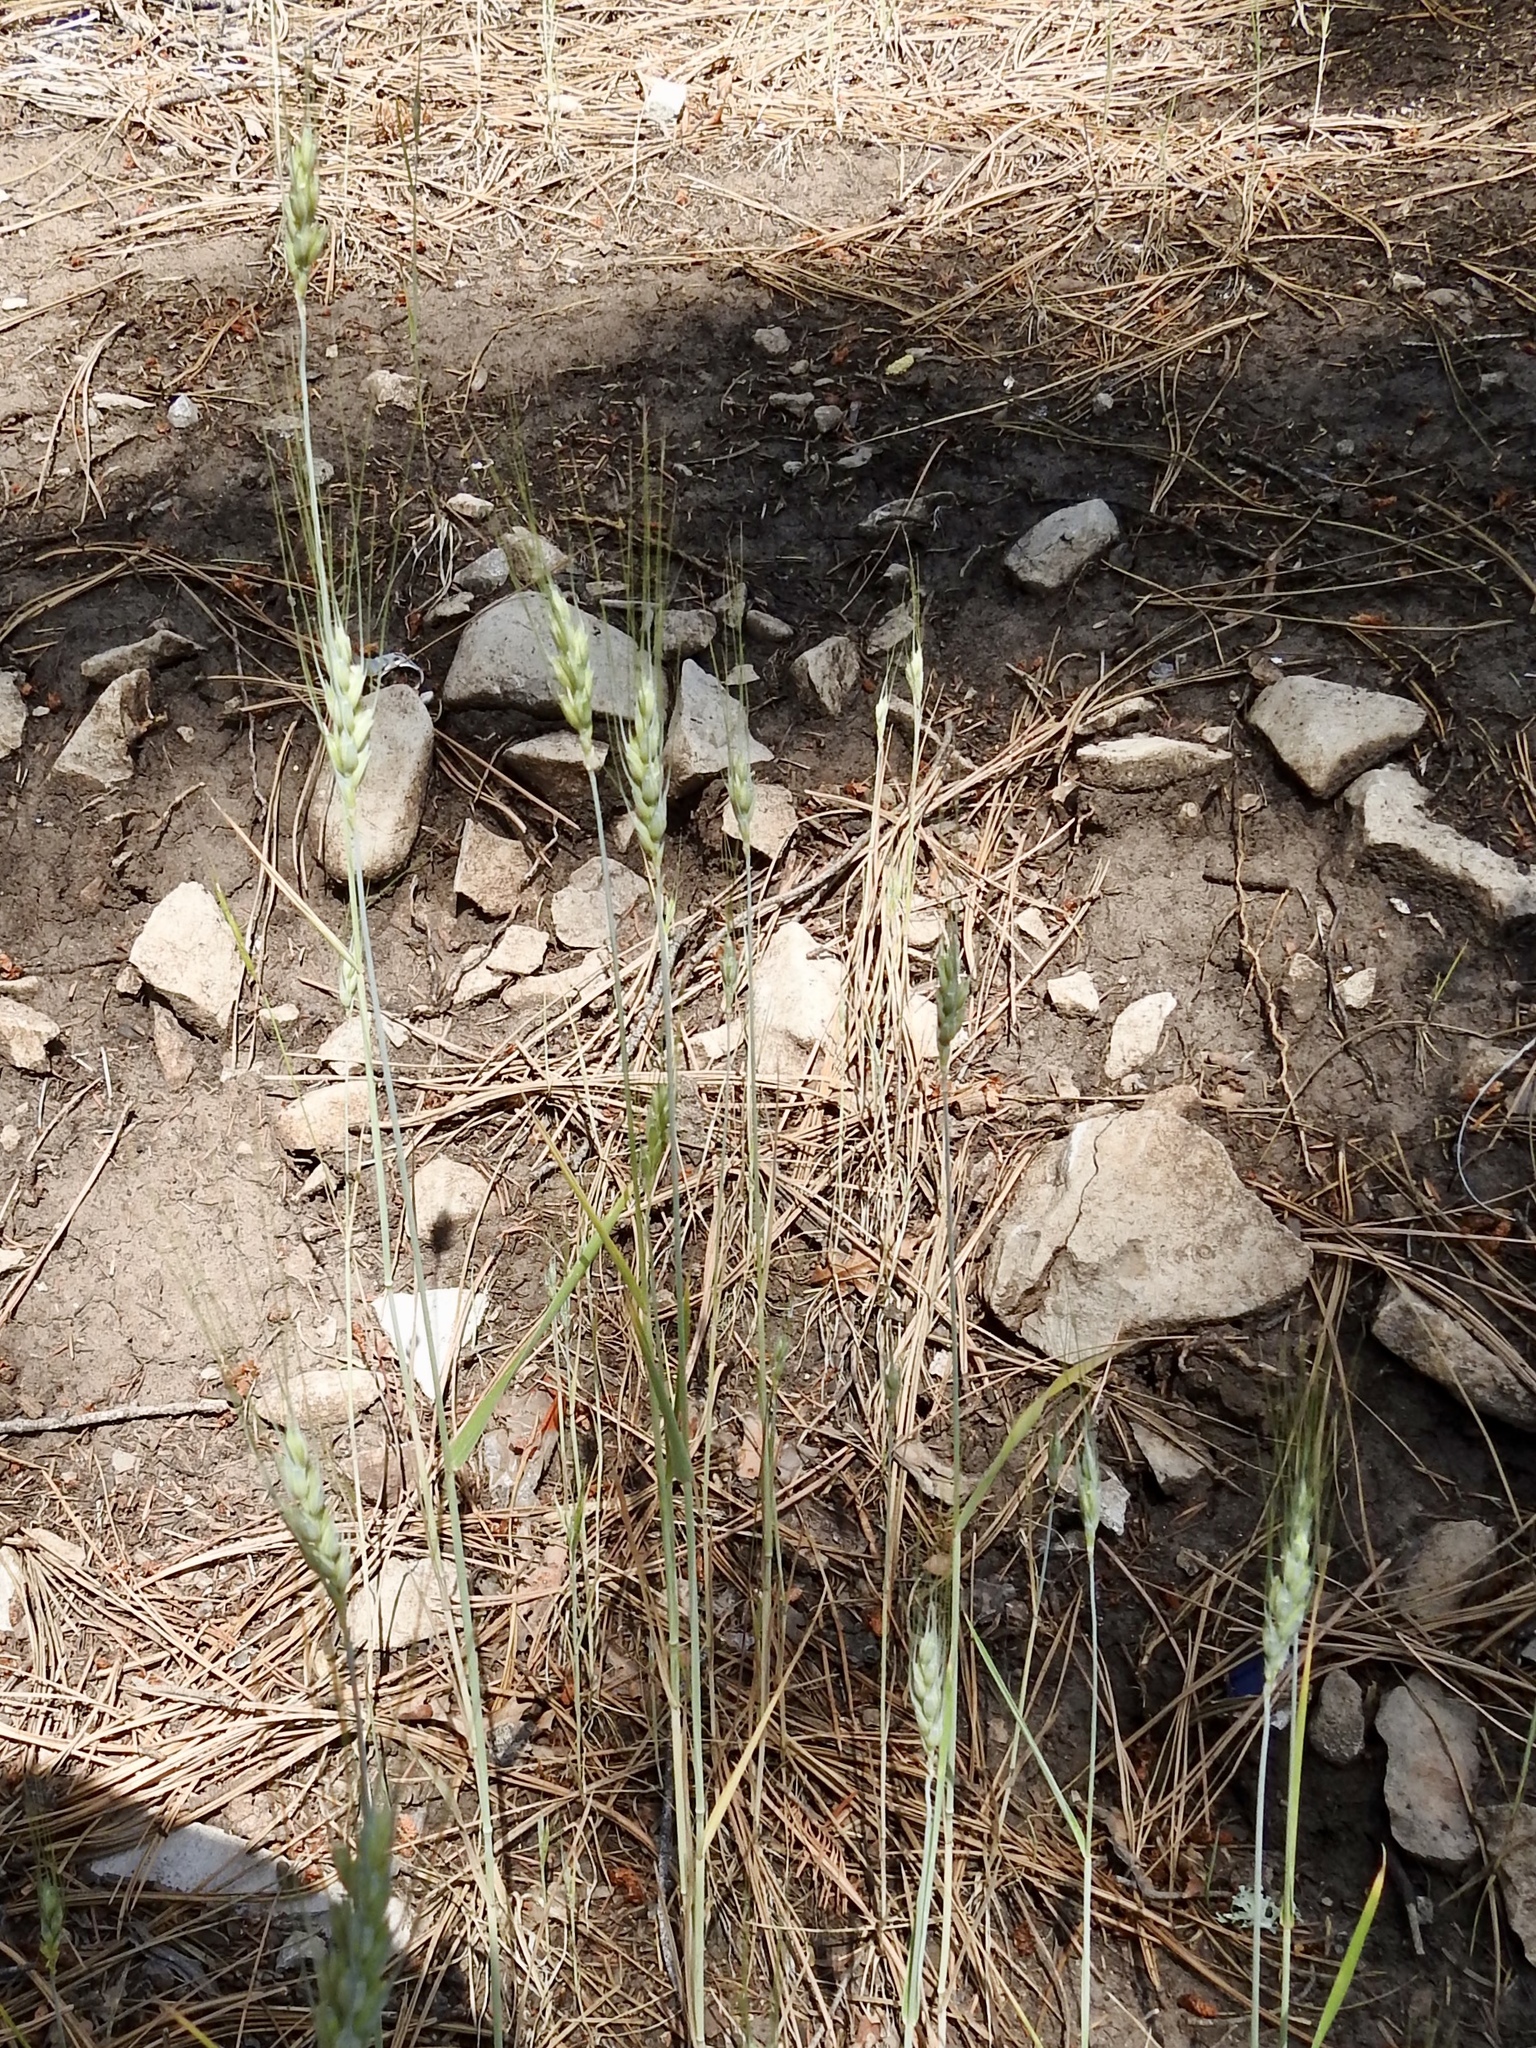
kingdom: Plantae
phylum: Tracheophyta
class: Liliopsida
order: Poales
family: Poaceae
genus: Triticum
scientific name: Triticum aestivum
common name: Common wheat
